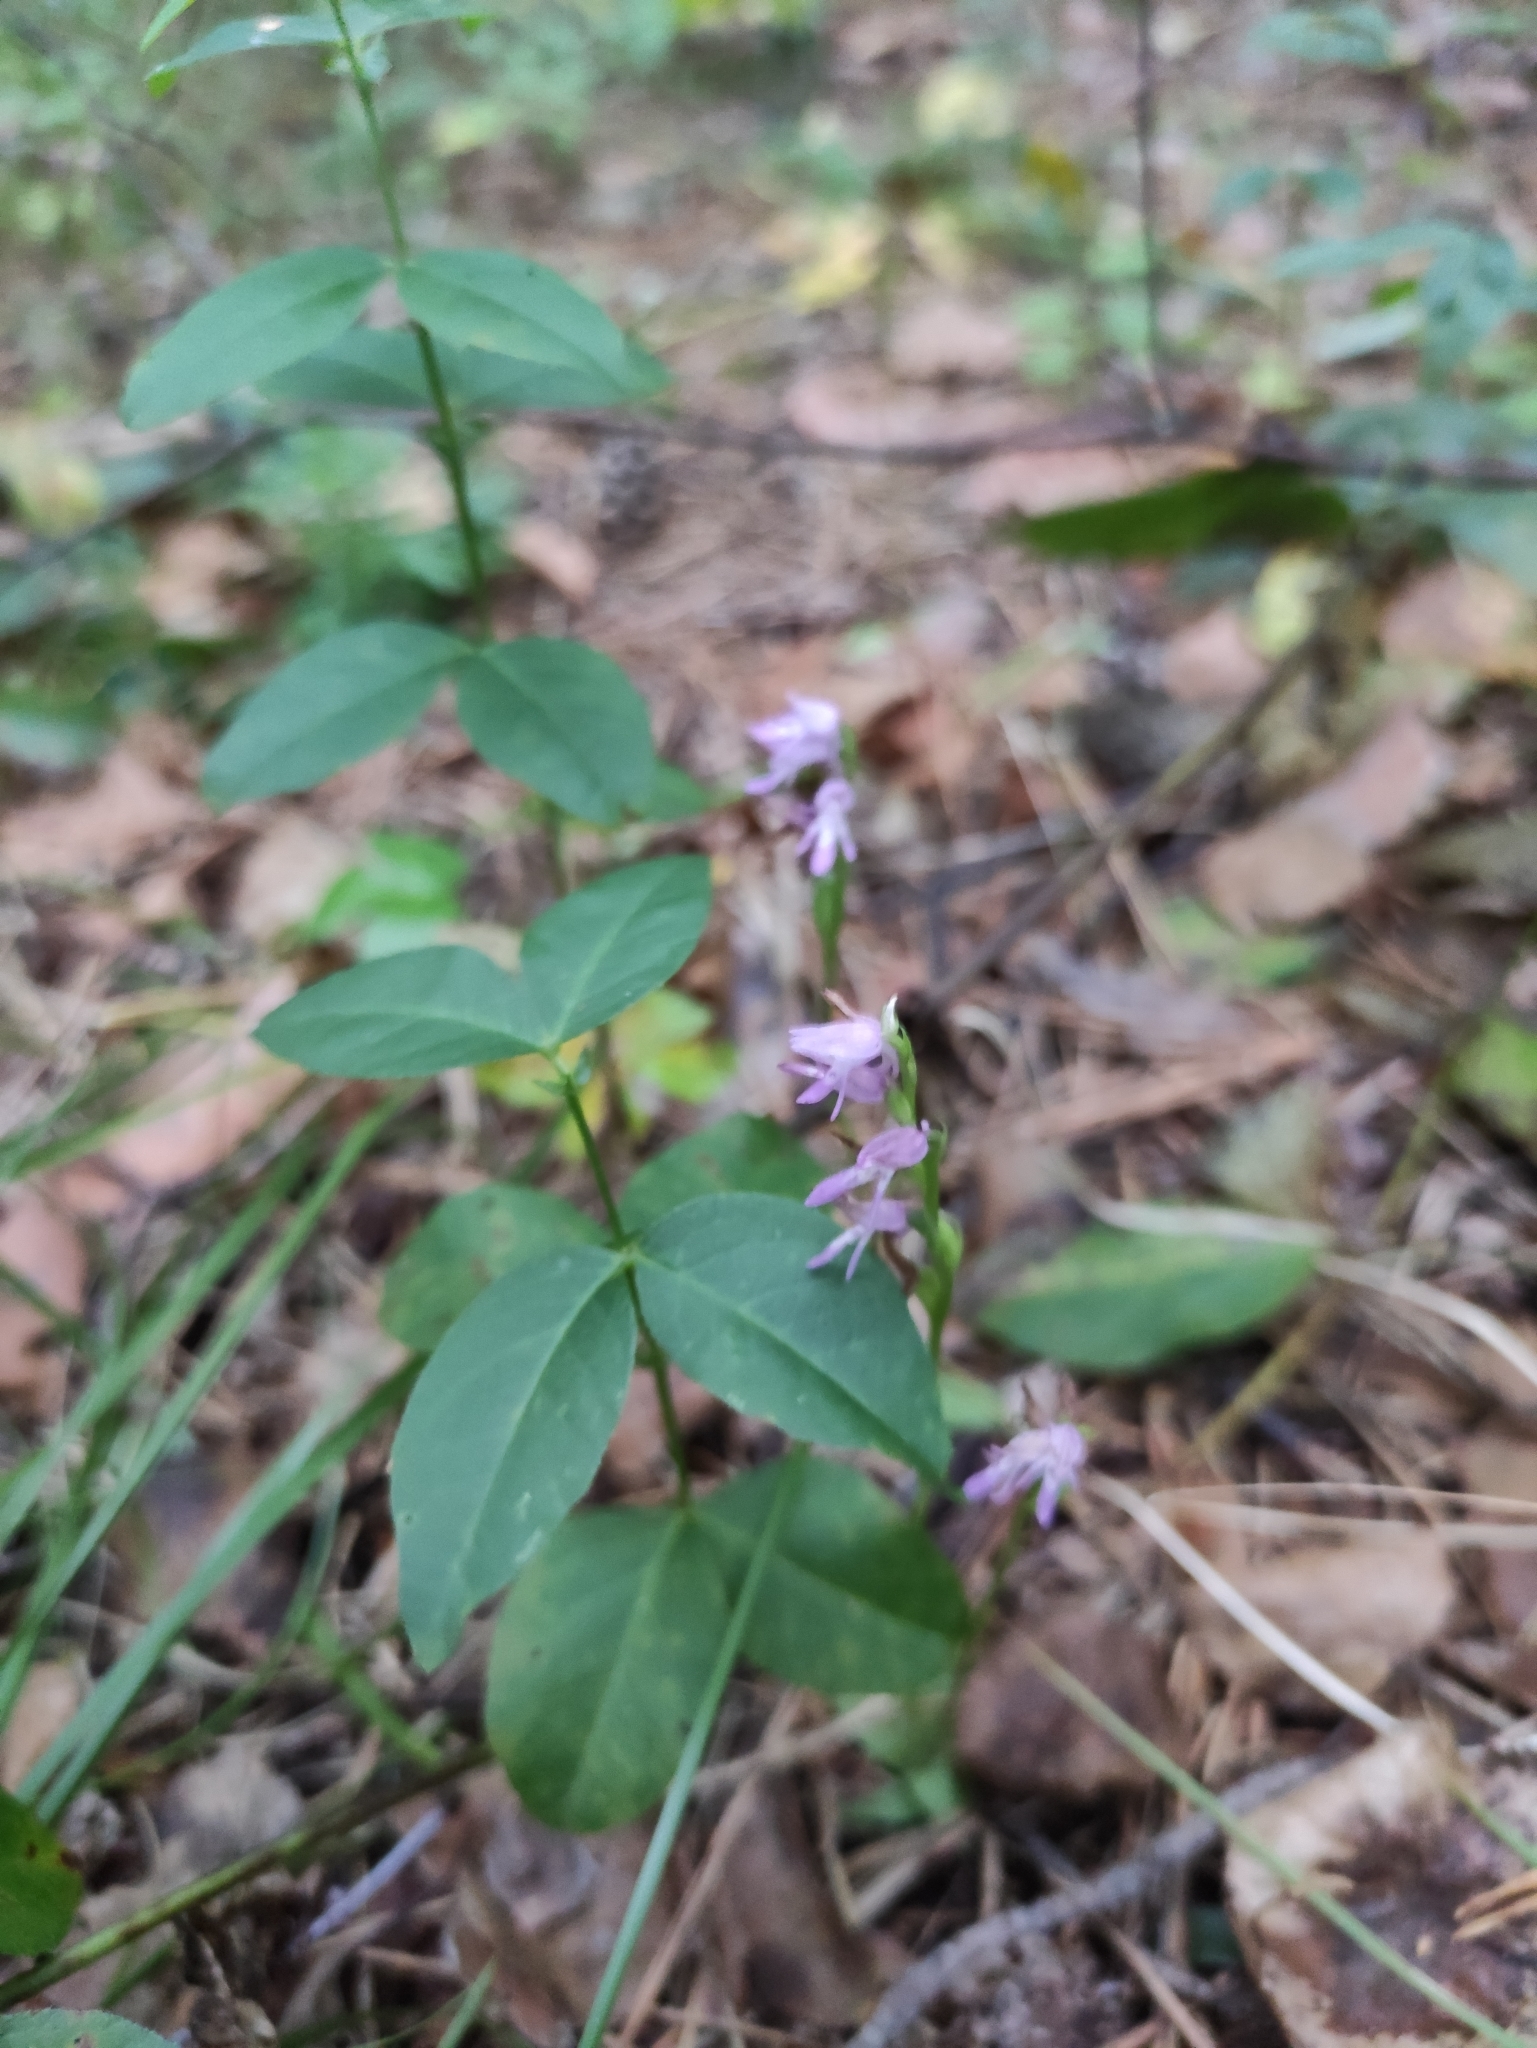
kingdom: Plantae
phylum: Tracheophyta
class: Liliopsida
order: Asparagales
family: Orchidaceae
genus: Hemipilia
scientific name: Hemipilia cucullata
